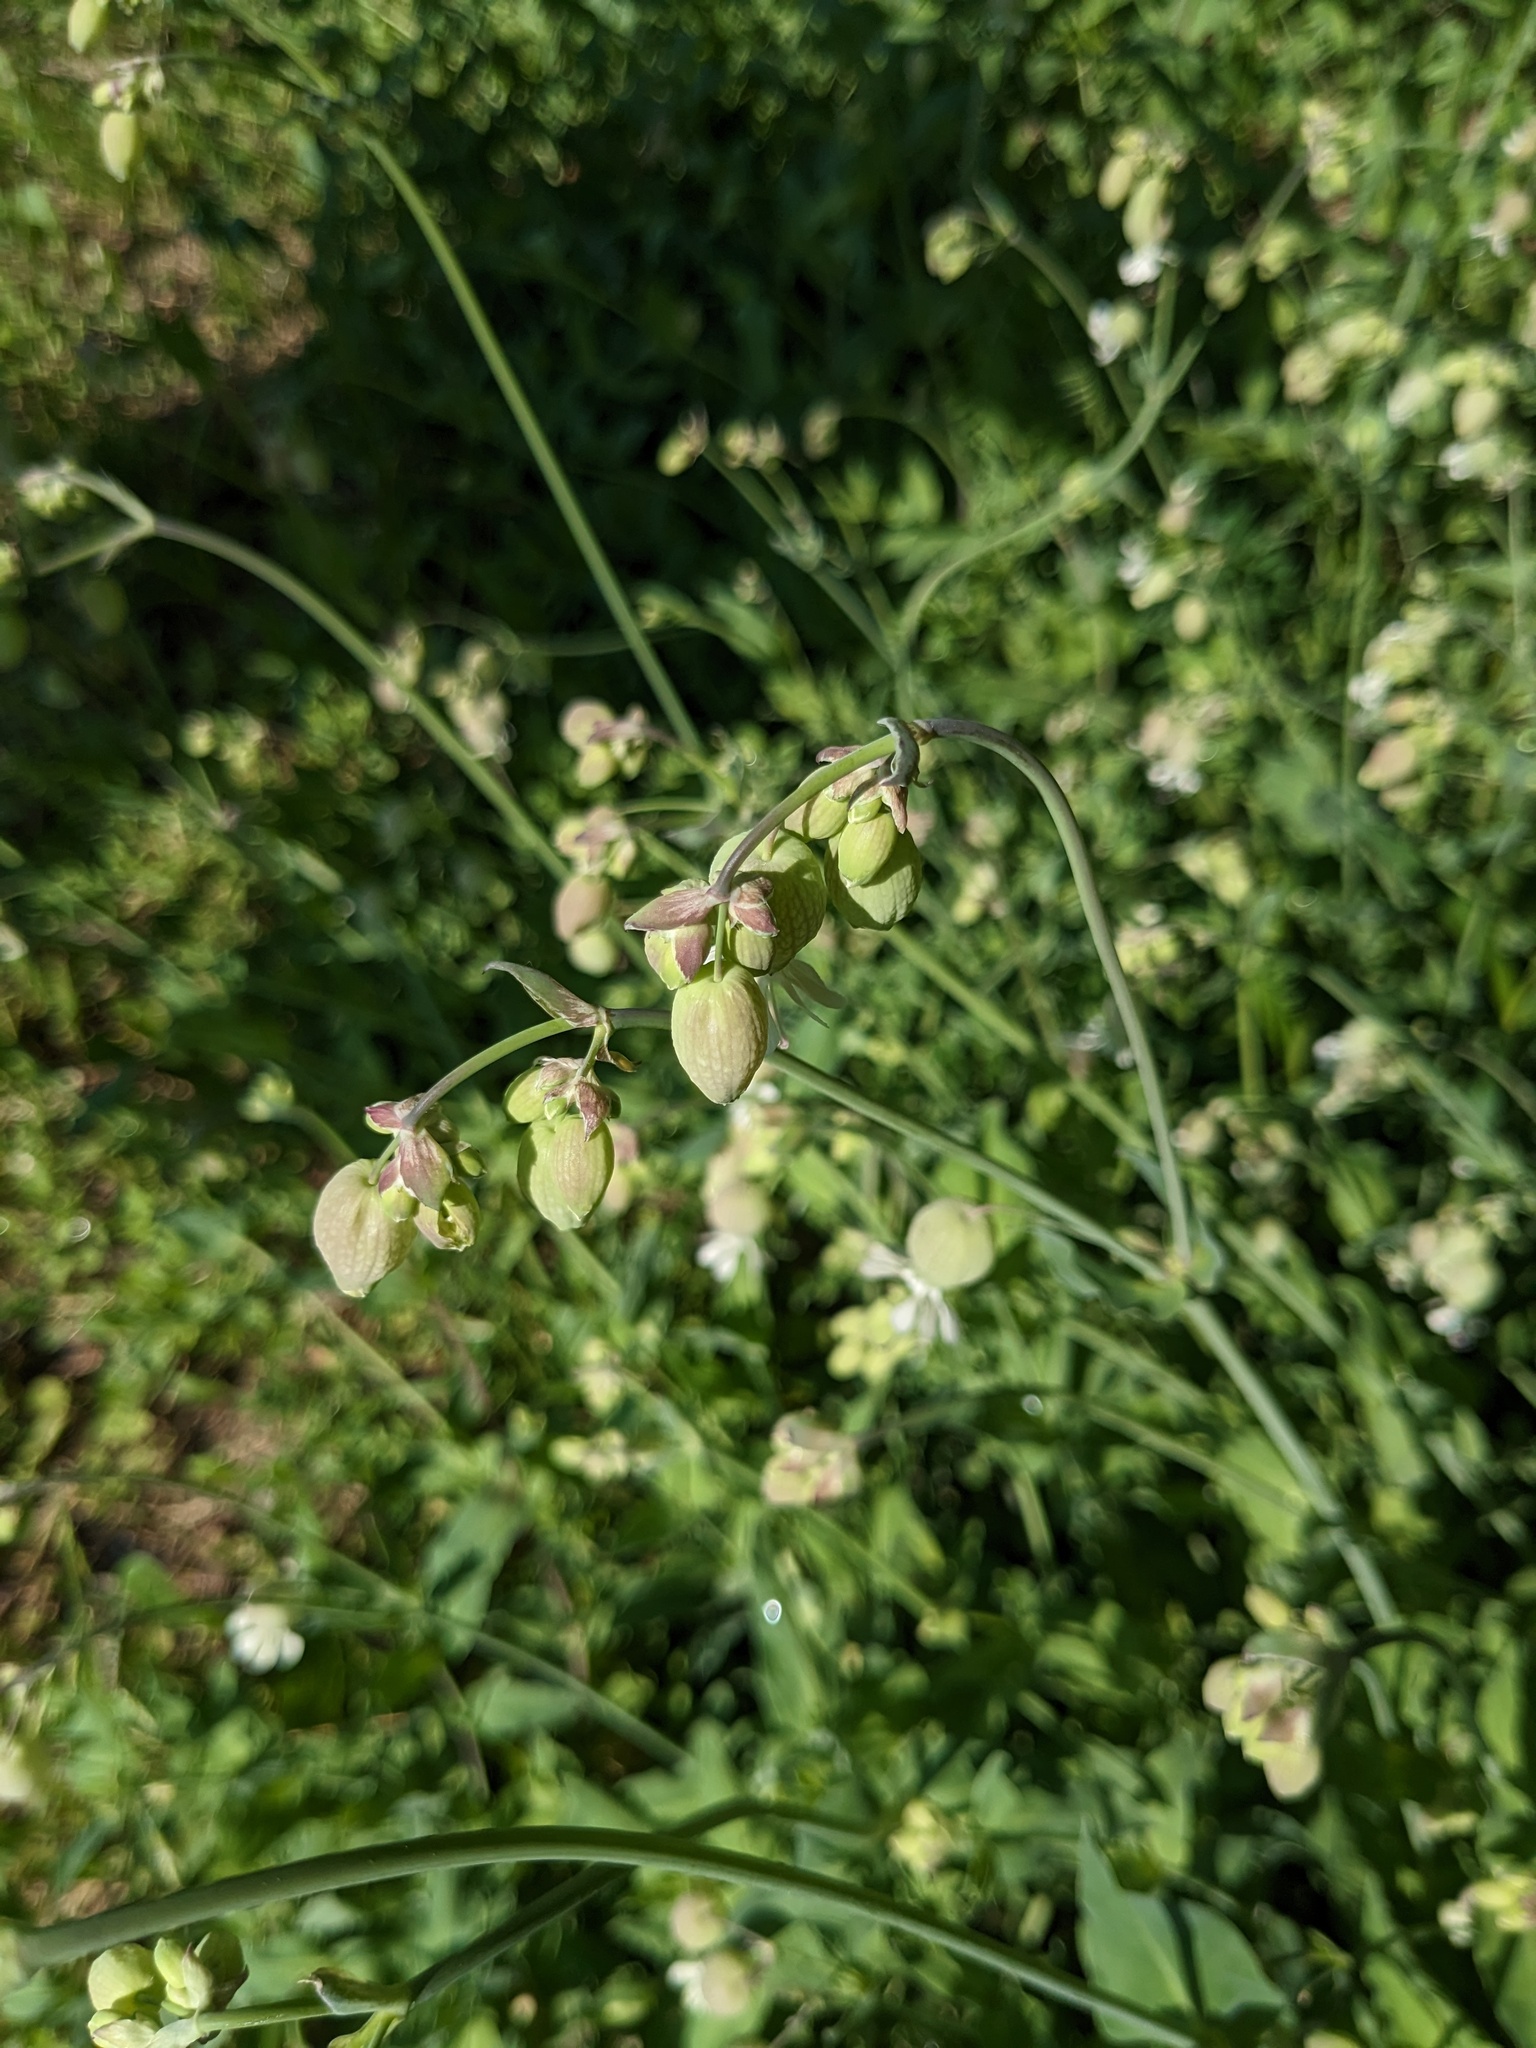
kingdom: Plantae
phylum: Tracheophyta
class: Magnoliopsida
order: Caryophyllales
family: Caryophyllaceae
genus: Silene
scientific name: Silene vulgaris
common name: Bladder campion
